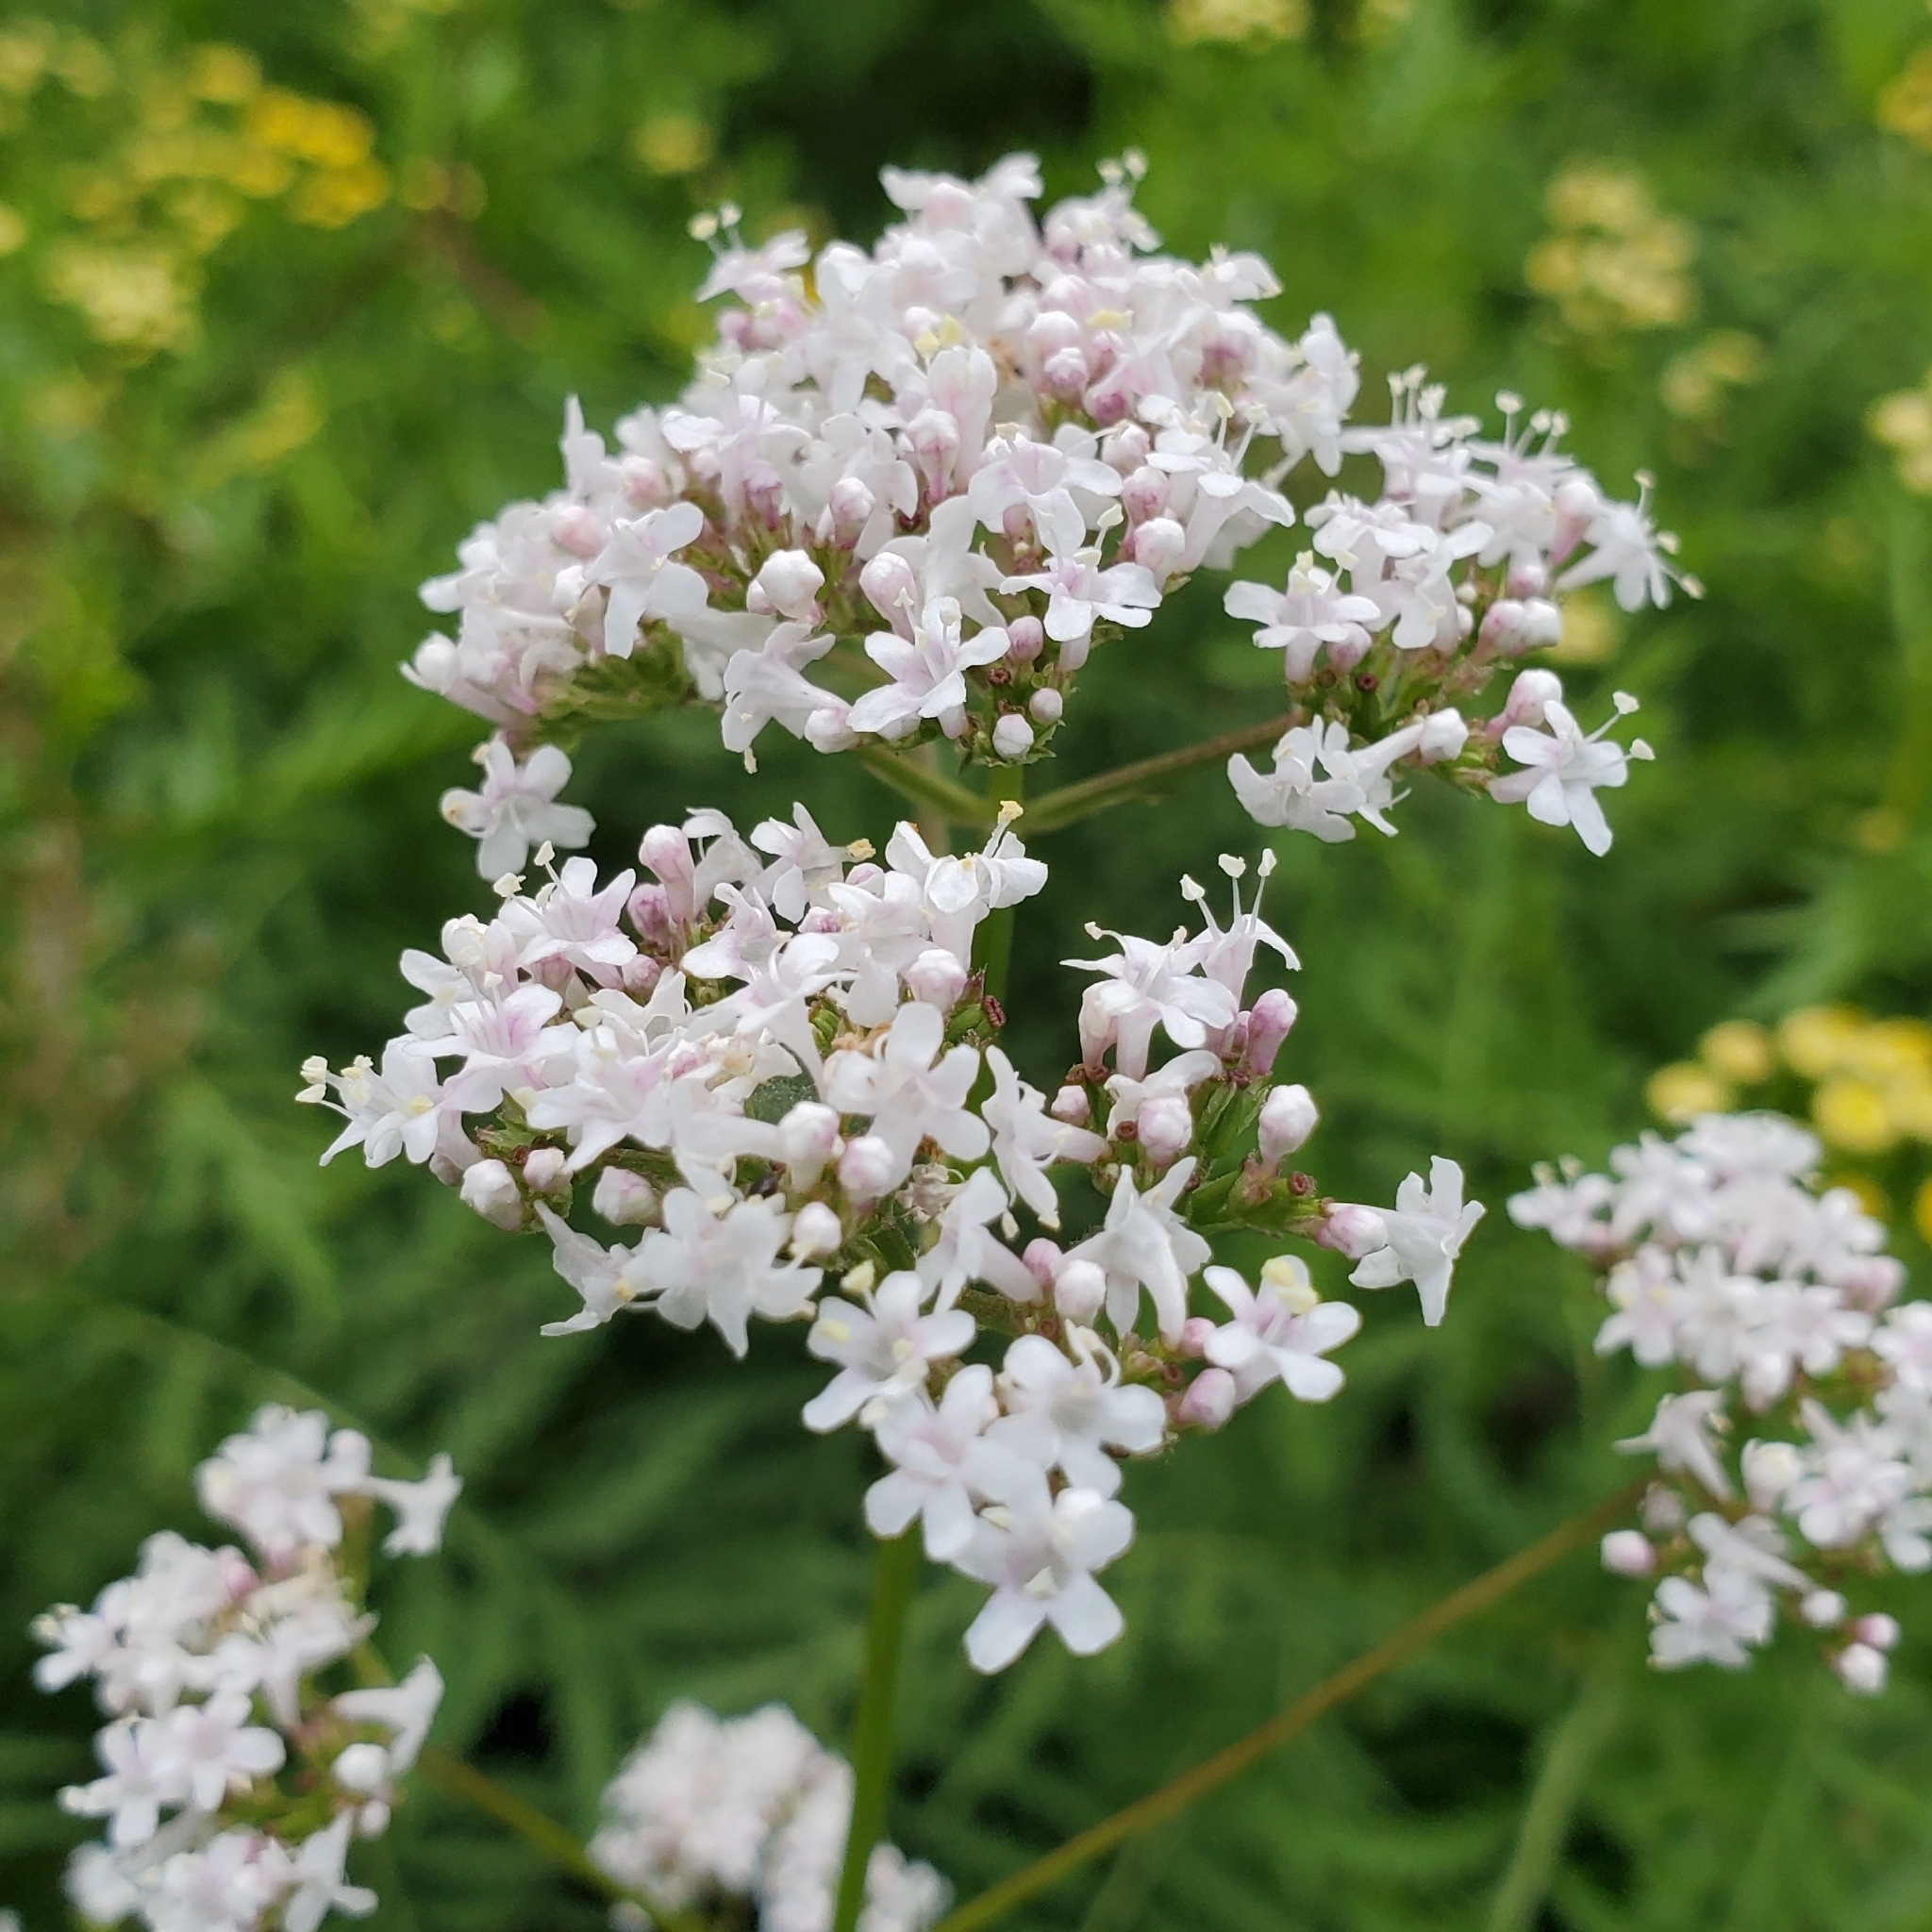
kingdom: Plantae
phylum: Tracheophyta
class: Magnoliopsida
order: Dipsacales
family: Caprifoliaceae
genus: Valeriana
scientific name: Valeriana officinalis
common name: Common valerian
